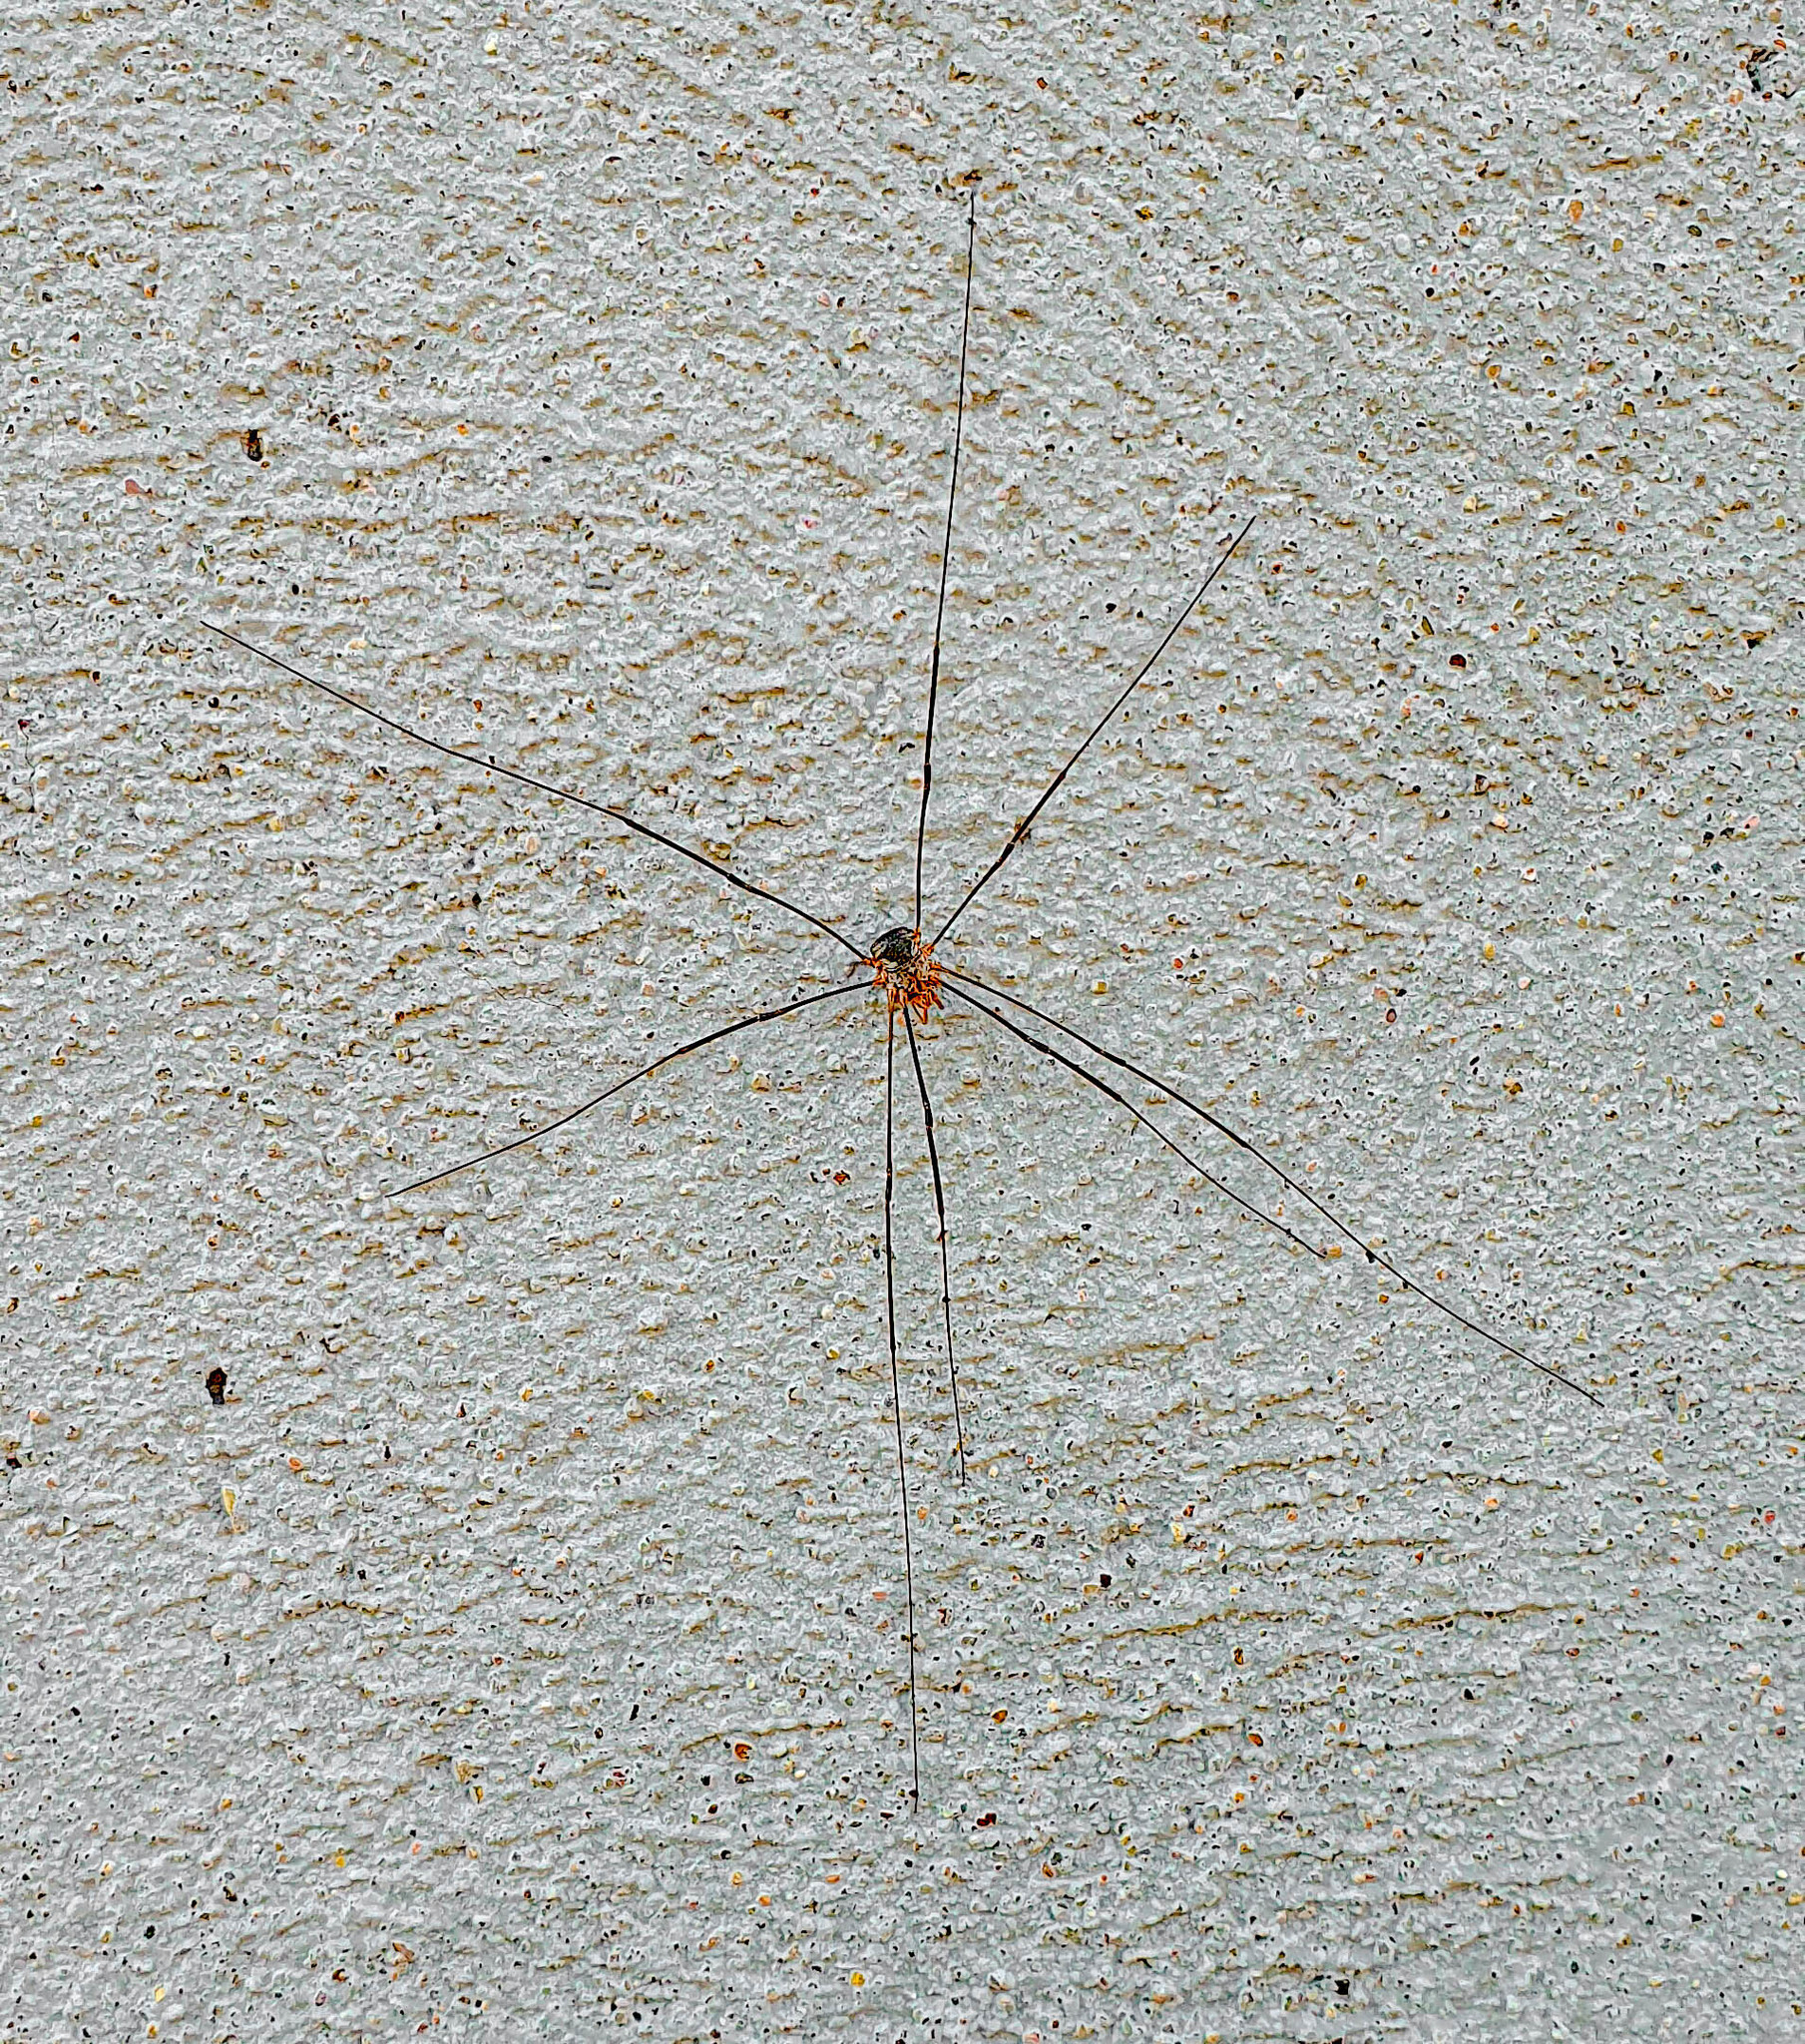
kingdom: Animalia
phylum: Arthropoda
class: Arachnida
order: Opiliones
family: Phalangiidae
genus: Phalangium
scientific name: Phalangium opilio
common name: Daddy longleg
